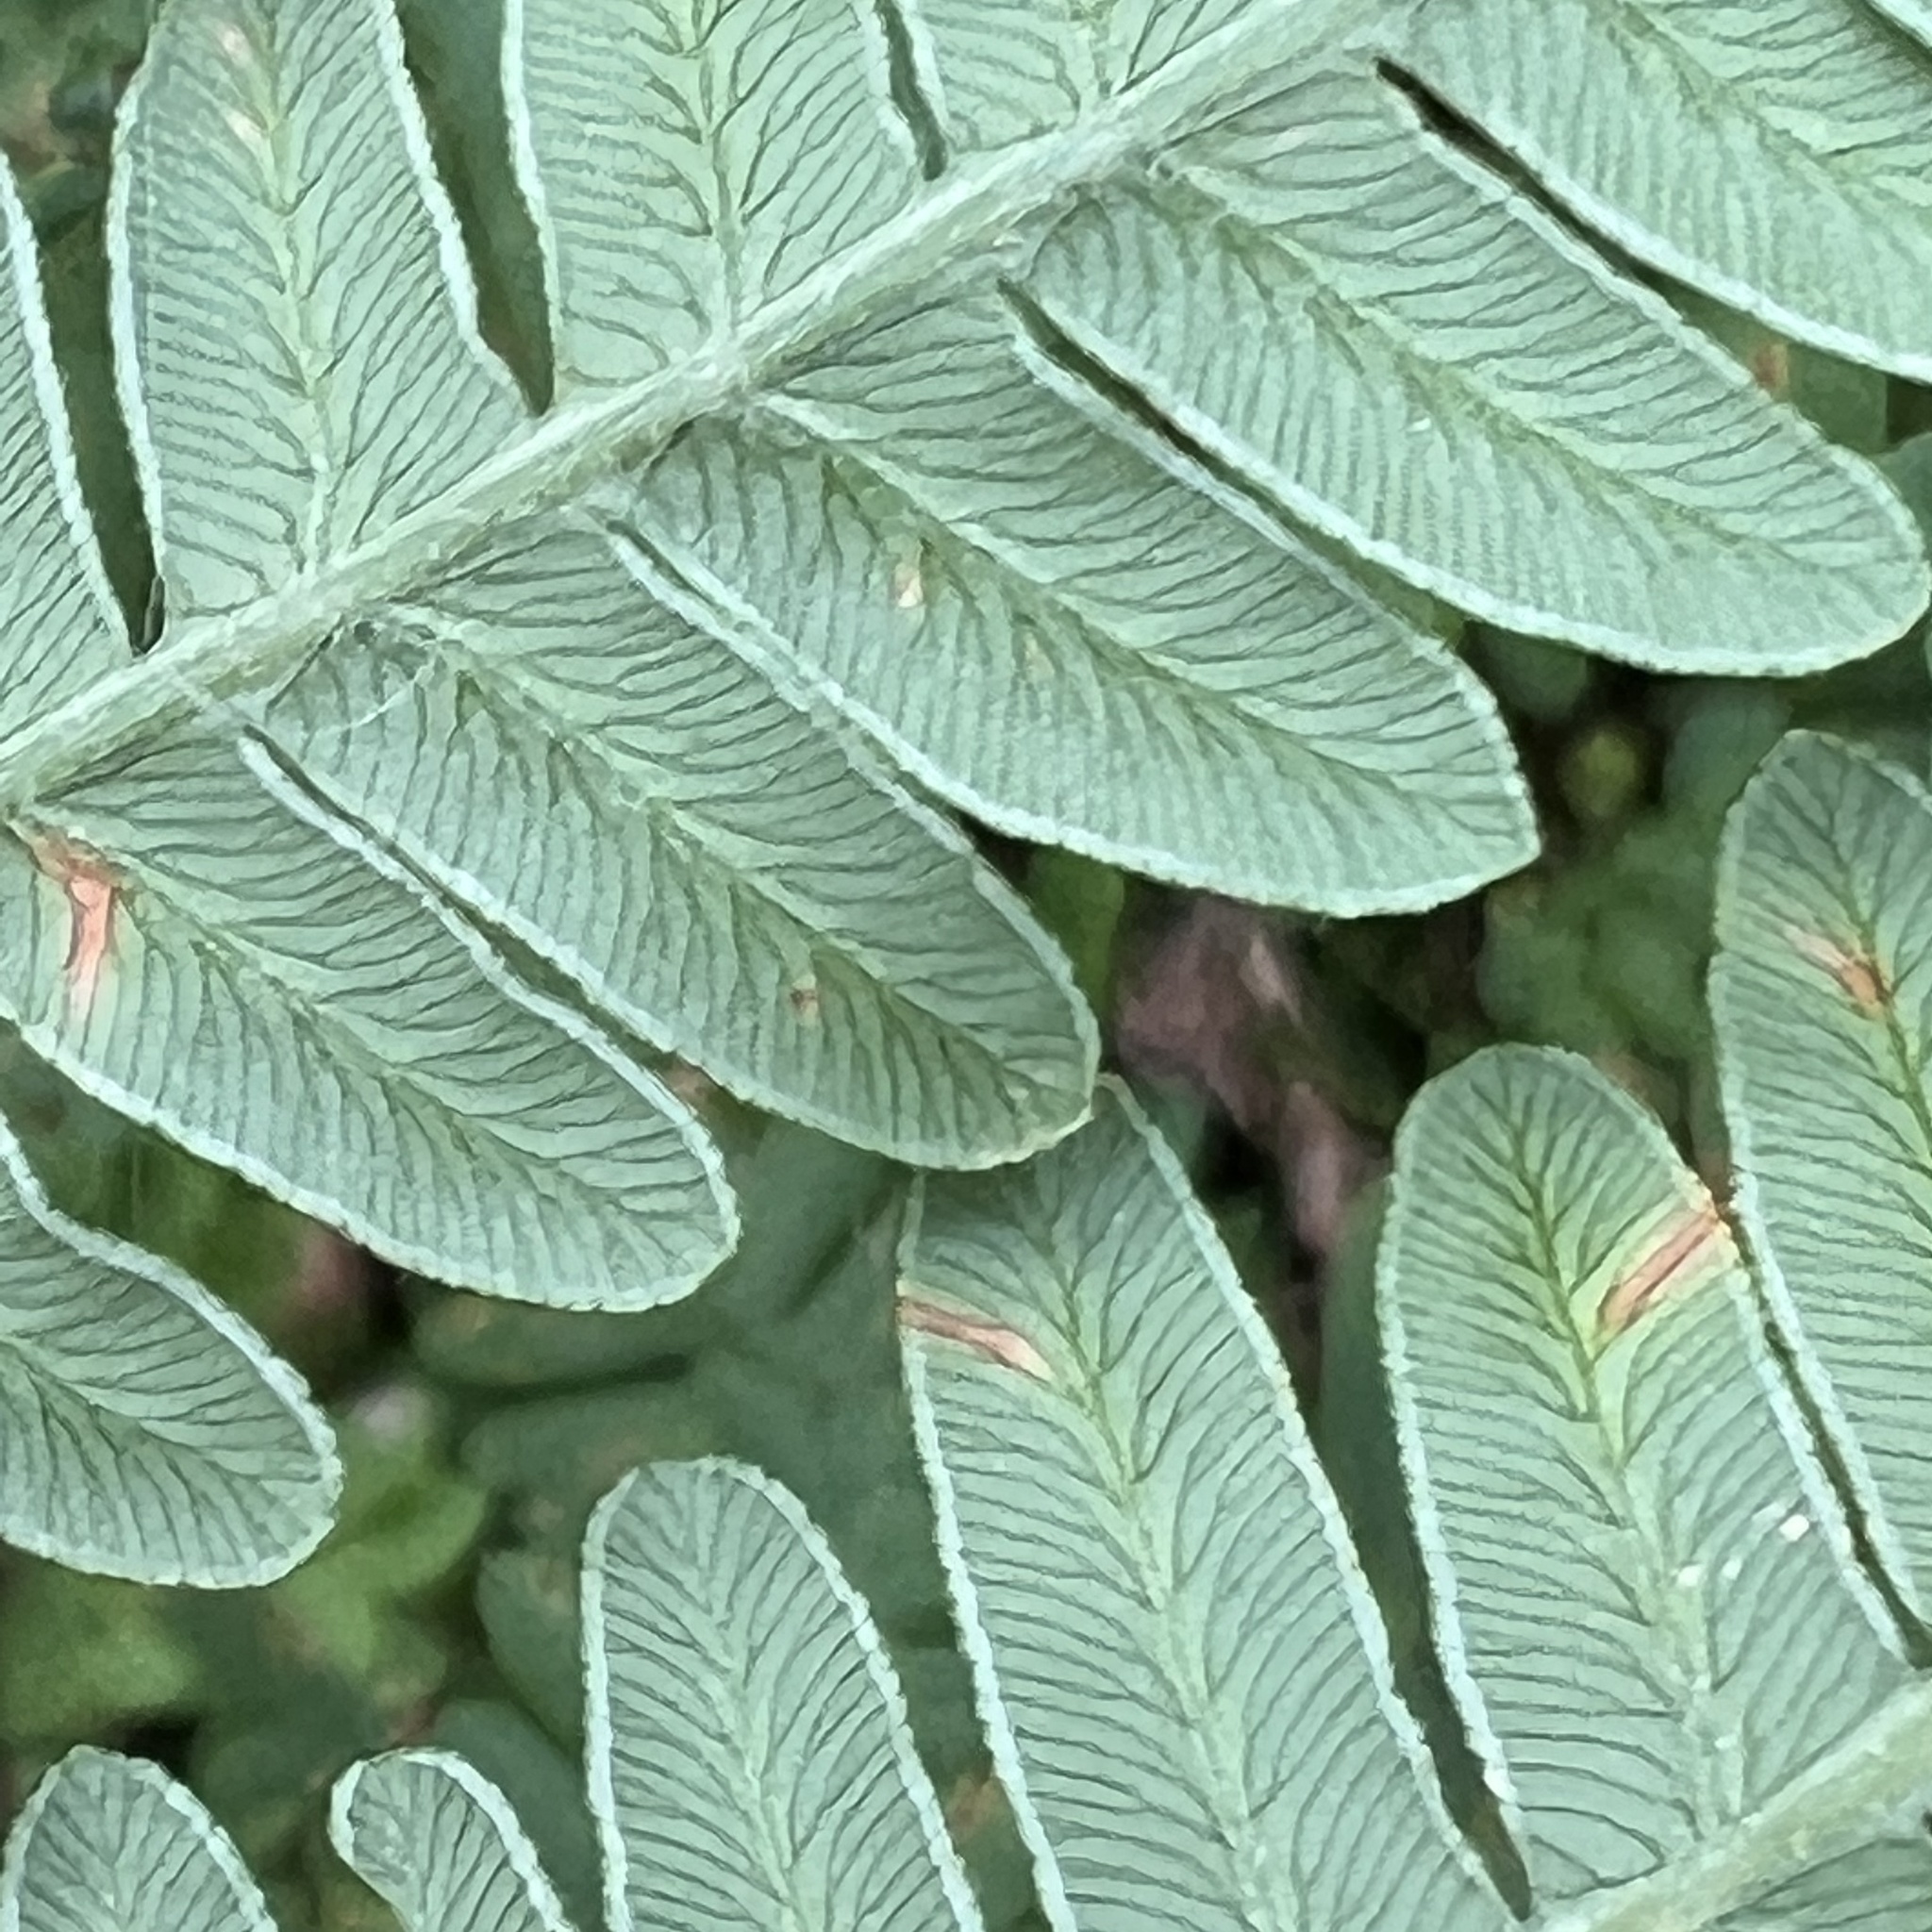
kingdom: Plantae
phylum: Tracheophyta
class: Polypodiopsida
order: Polypodiales
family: Dennstaedtiaceae
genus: Pteridium
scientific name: Pteridium aquilinum
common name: Bracken
